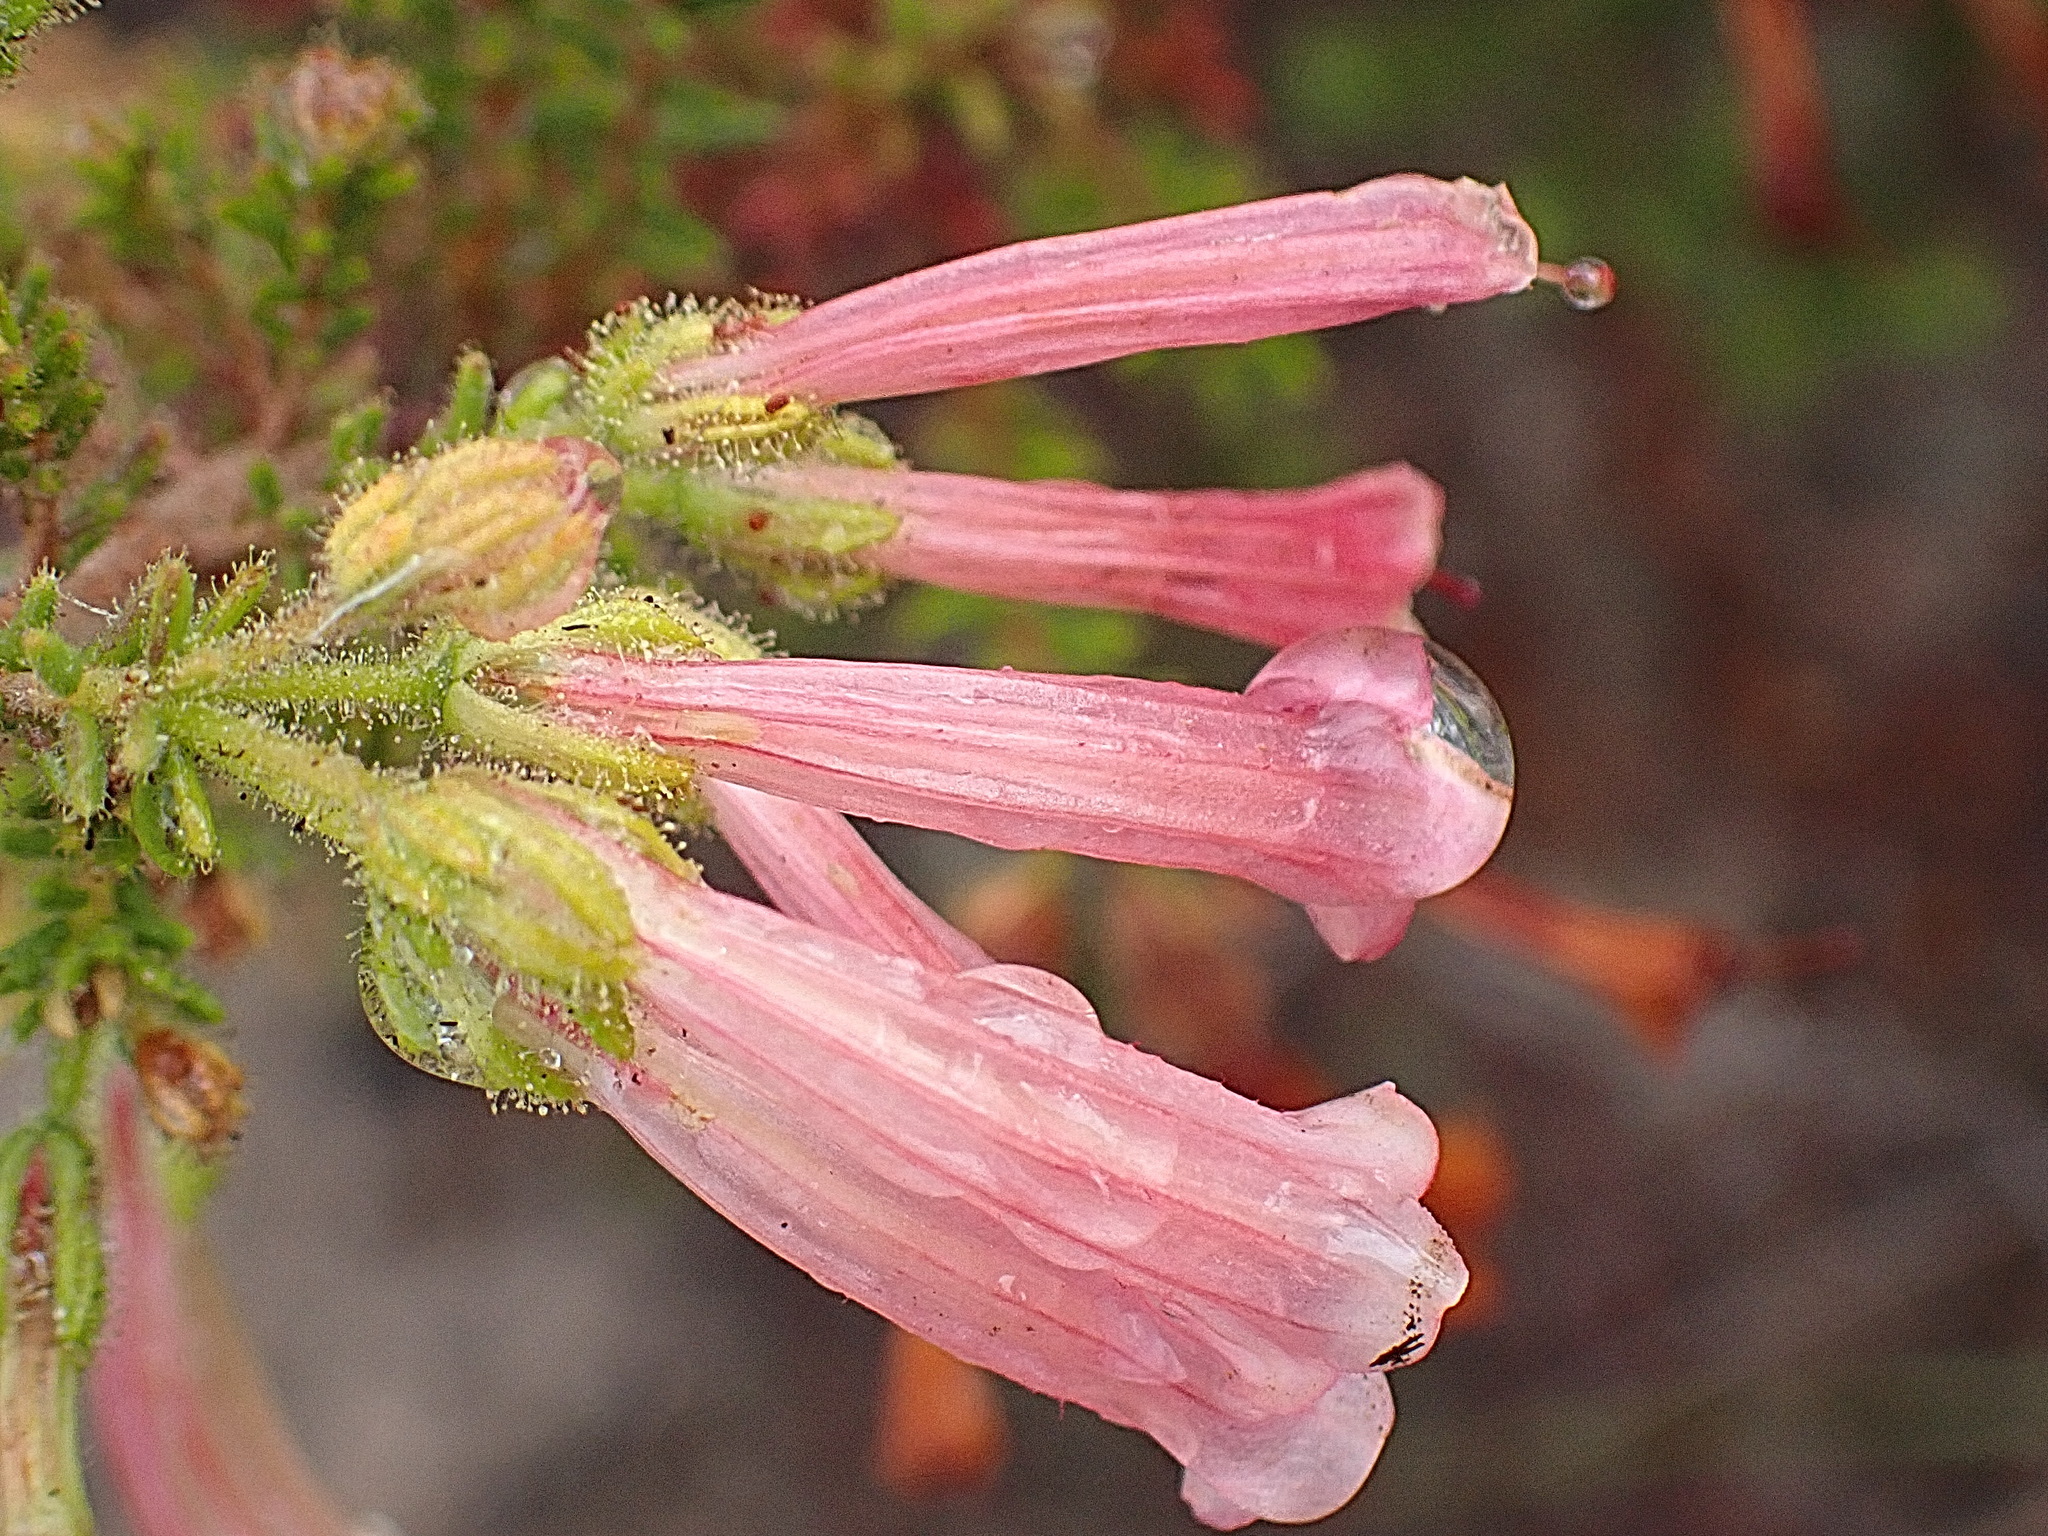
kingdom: Plantae
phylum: Tracheophyta
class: Magnoliopsida
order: Ericales
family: Ericaceae
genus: Erica
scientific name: Erica glandulosa
